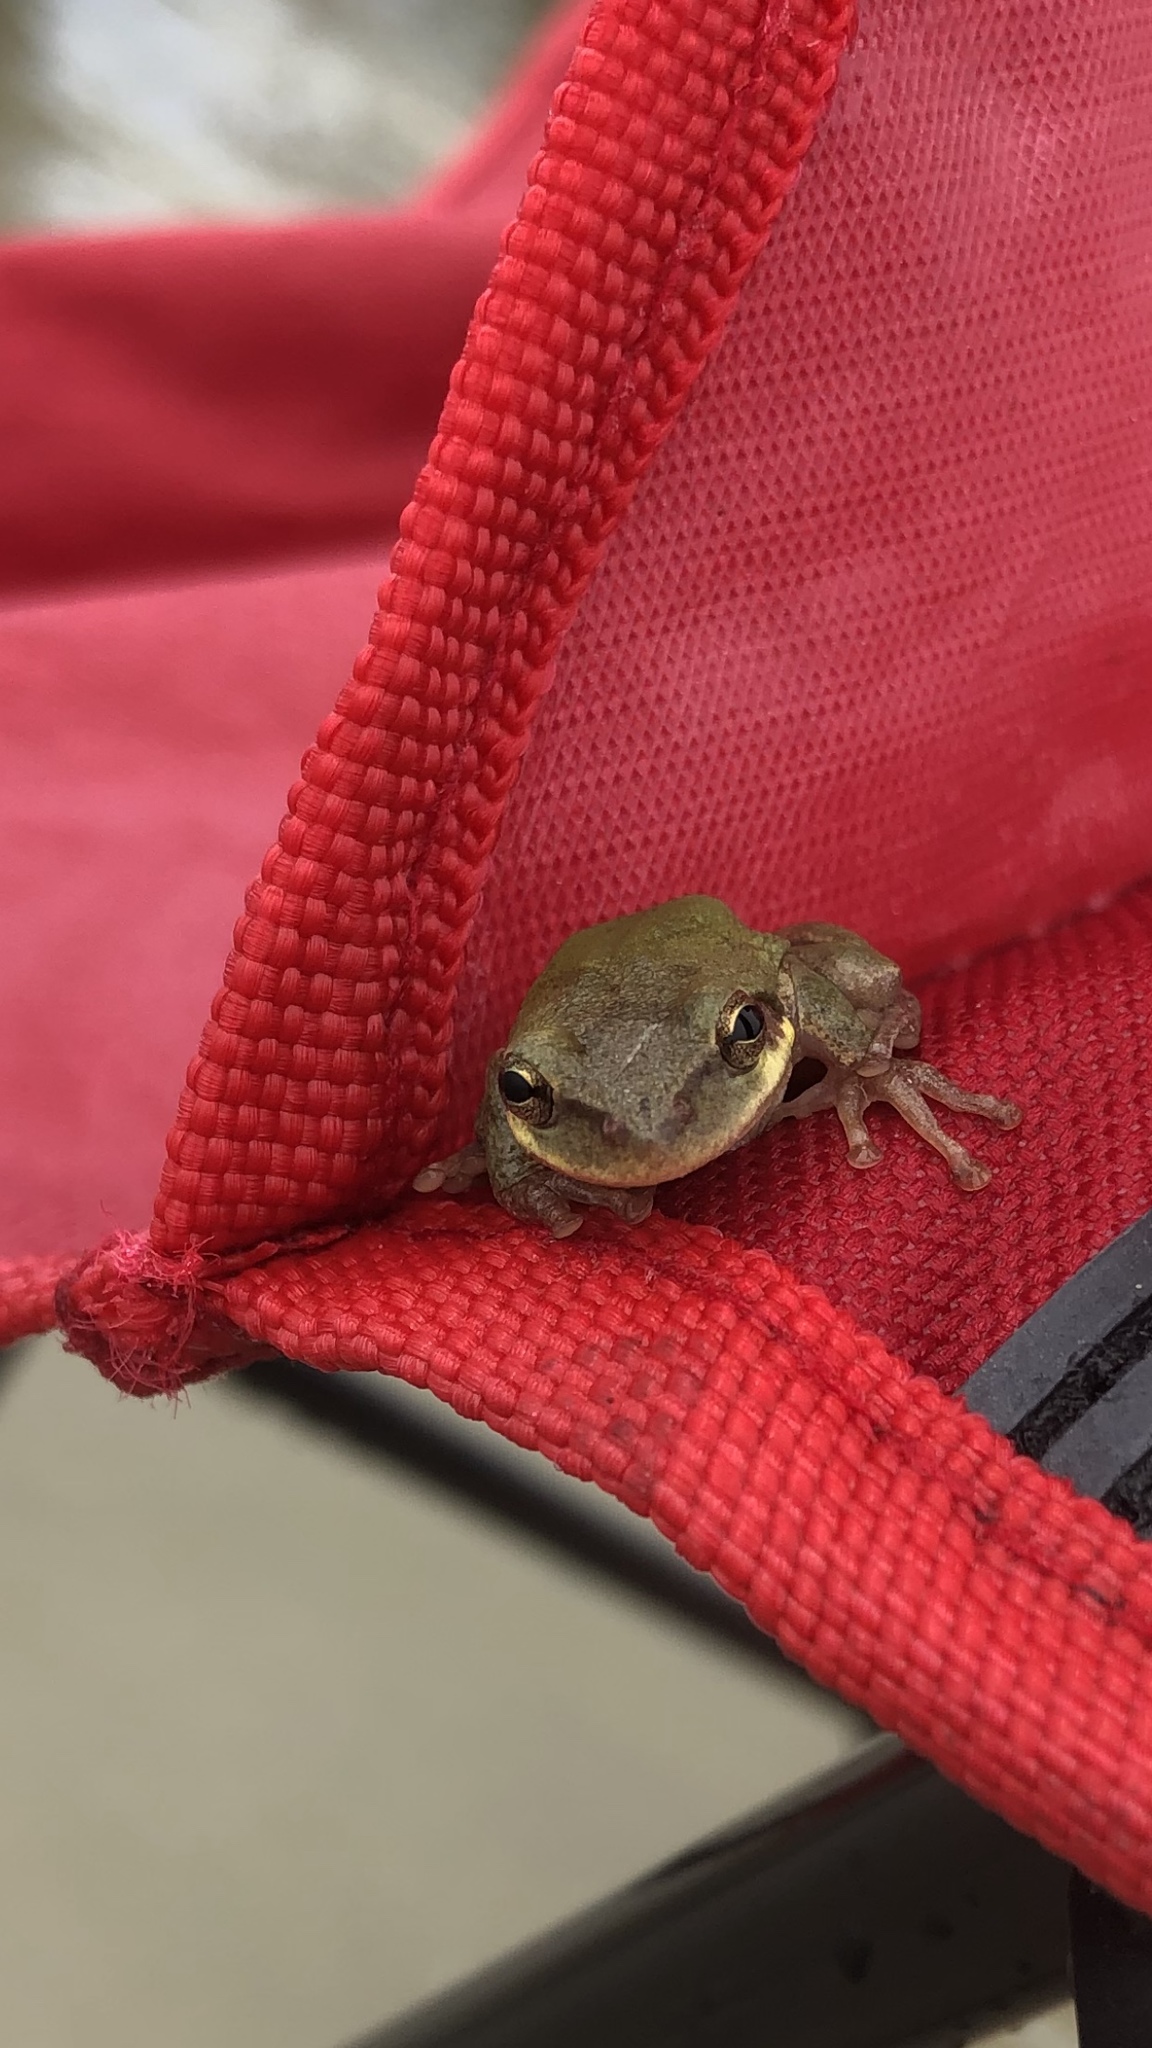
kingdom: Animalia
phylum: Chordata
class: Amphibia
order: Anura
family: Hylidae
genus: Dryophytes
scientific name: Dryophytes squirellus
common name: Squirrel treefrog
